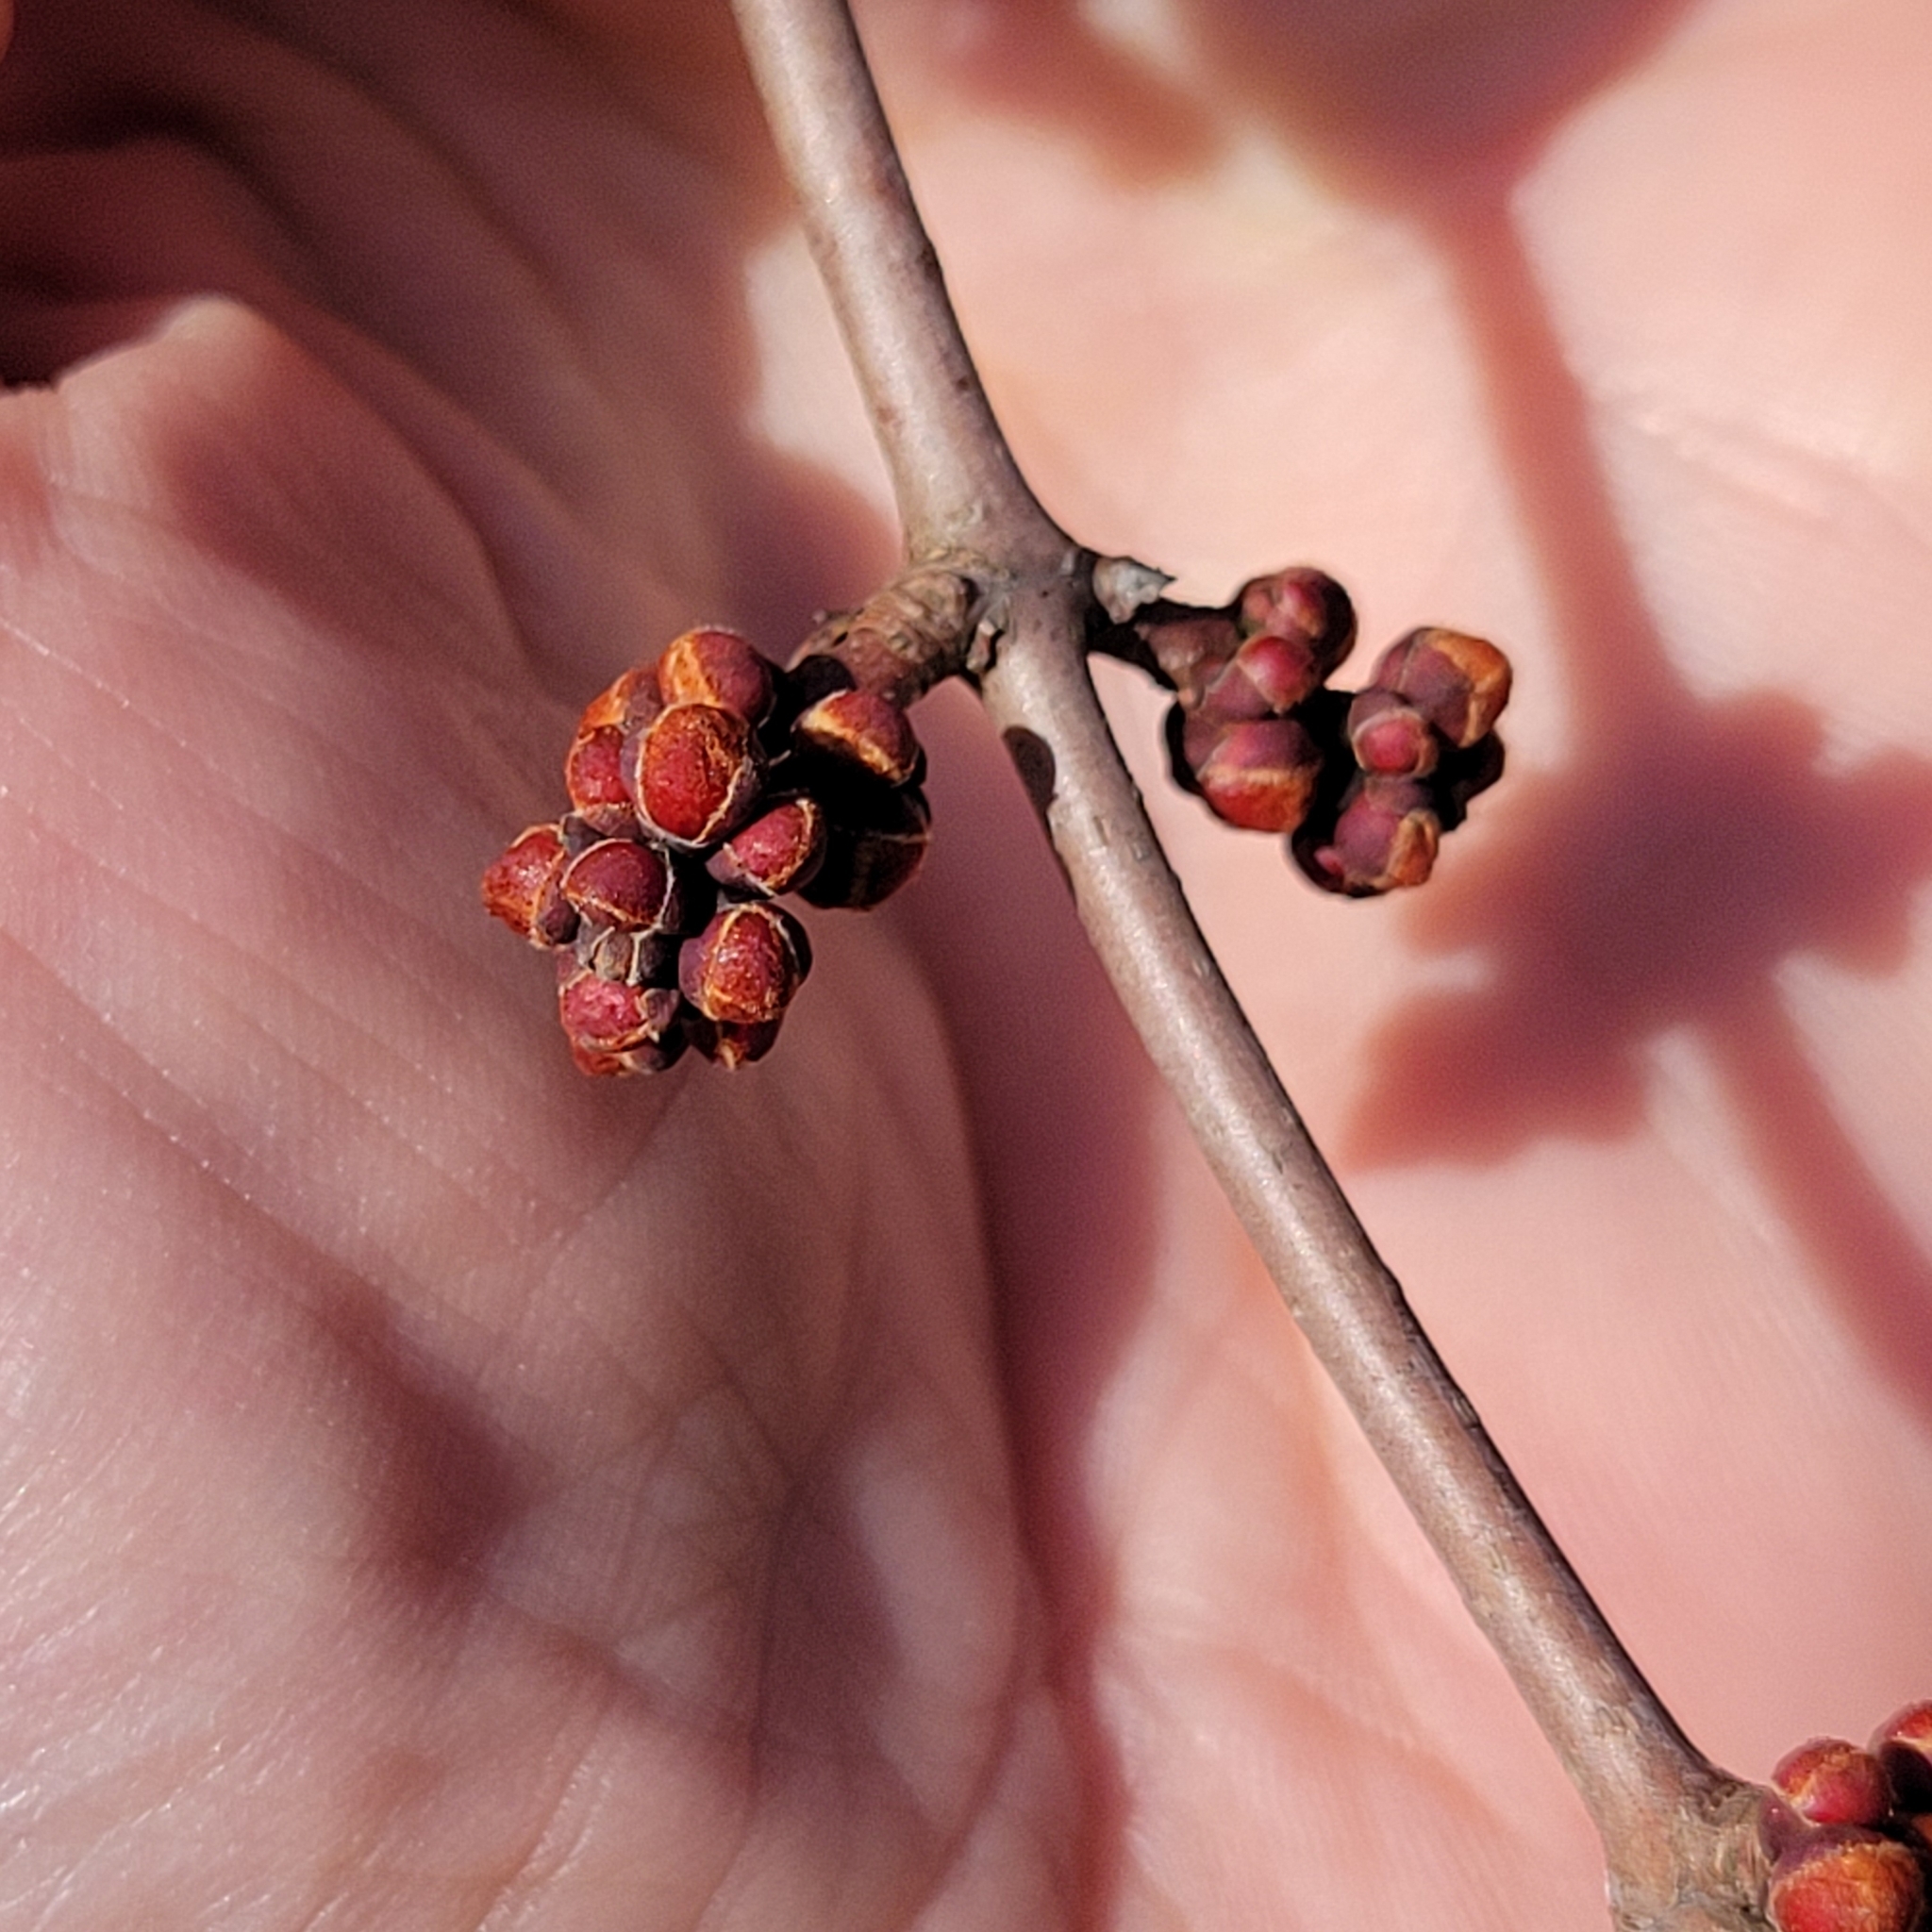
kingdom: Plantae
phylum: Tracheophyta
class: Magnoliopsida
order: Sapindales
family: Sapindaceae
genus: Acer
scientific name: Acer rubrum
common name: Red maple
